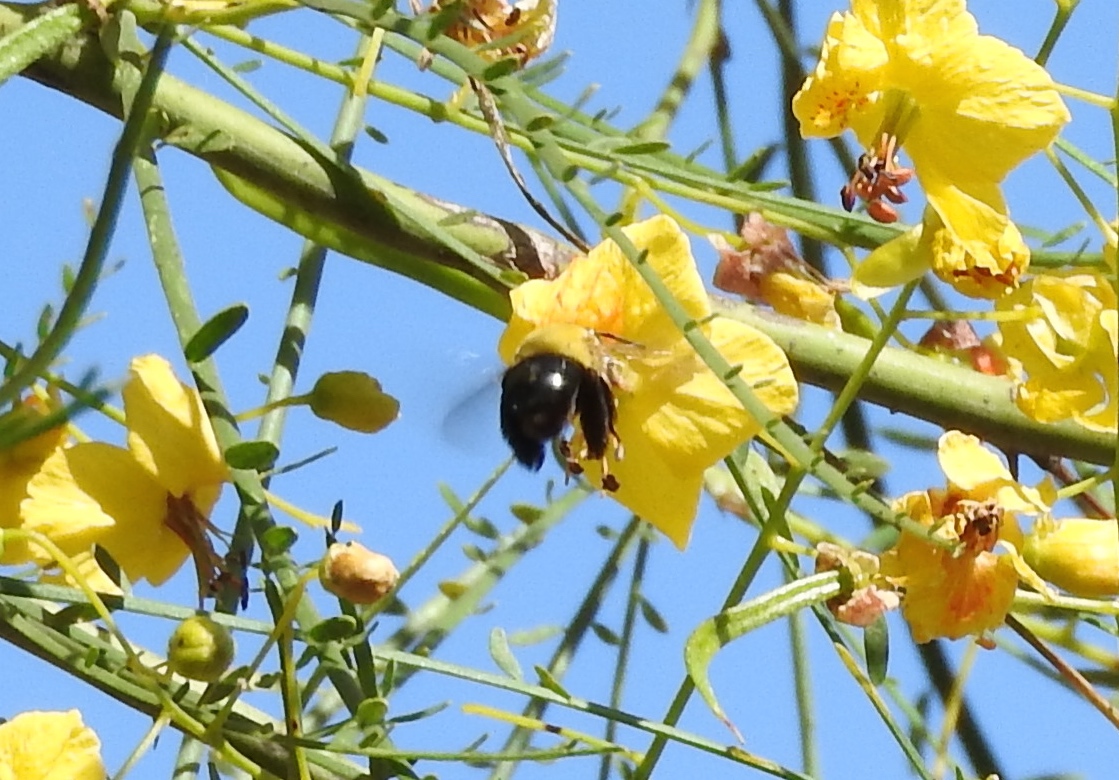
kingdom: Animalia
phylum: Arthropoda
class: Insecta
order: Hymenoptera
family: Apidae
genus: Centris
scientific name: Centris
